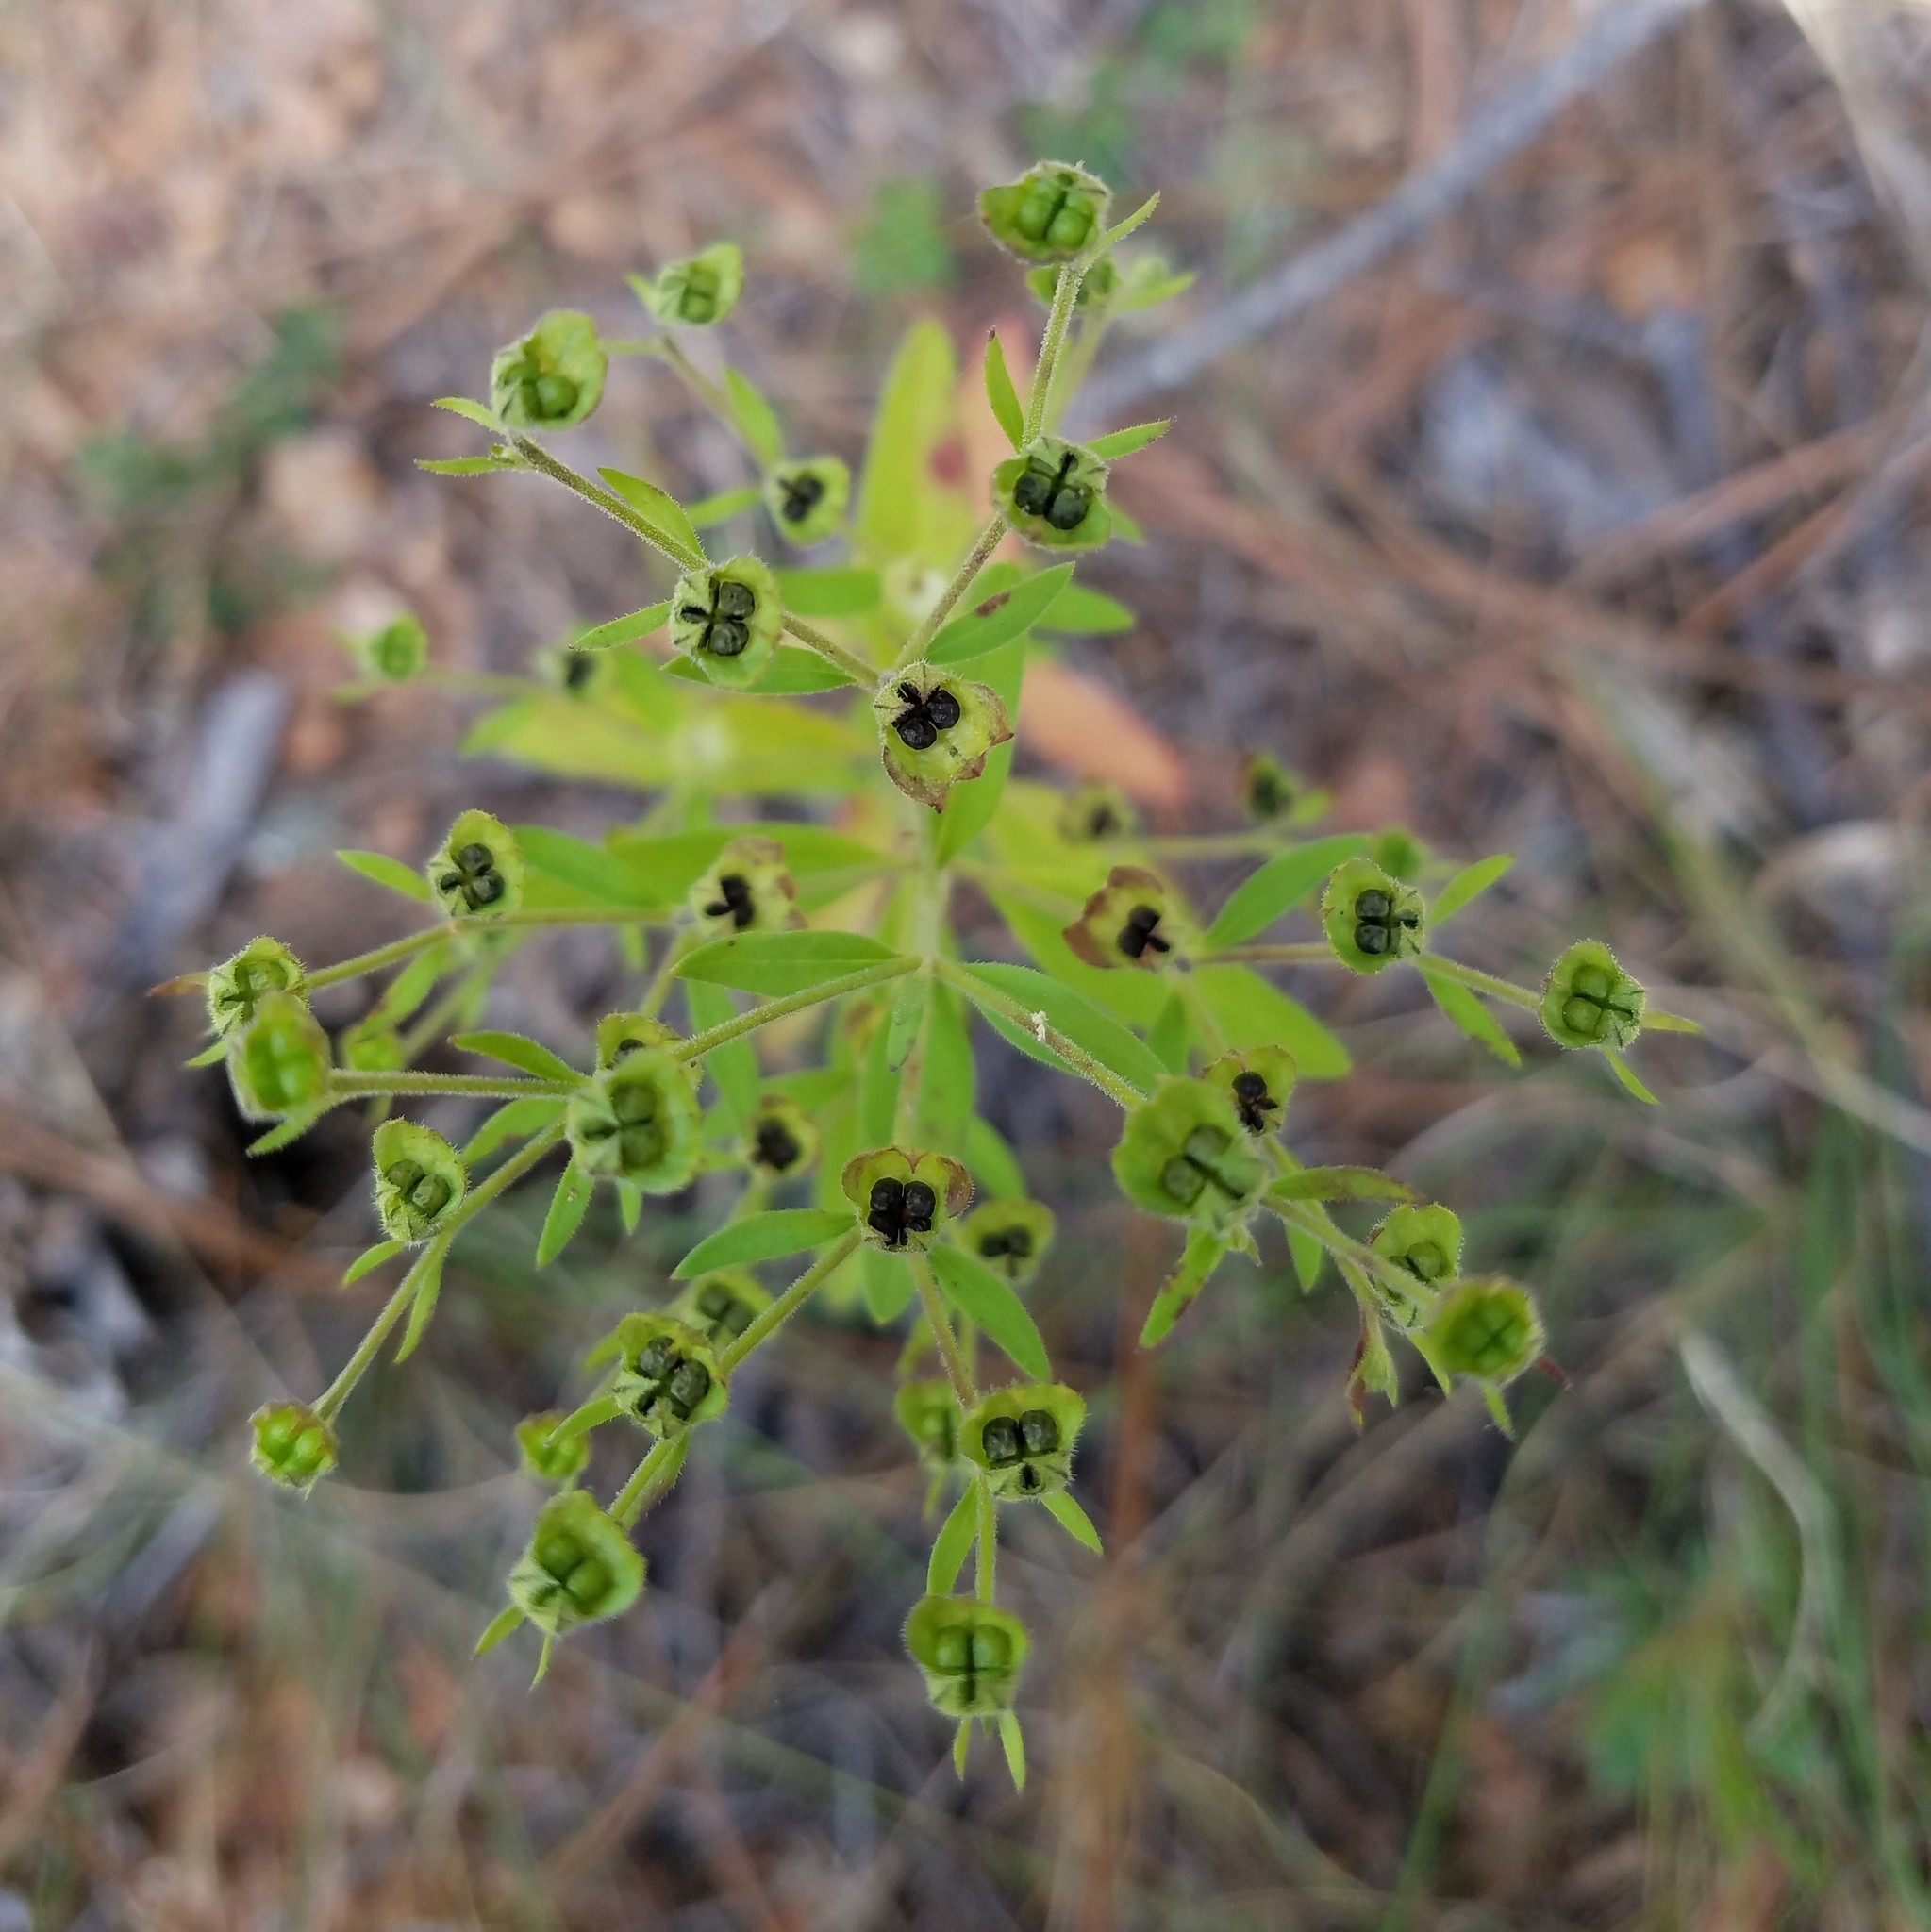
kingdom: Plantae
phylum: Tracheophyta
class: Magnoliopsida
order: Lamiales
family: Lamiaceae
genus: Trichostema
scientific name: Trichostema dichotomum
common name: Bastard pennyroyal
